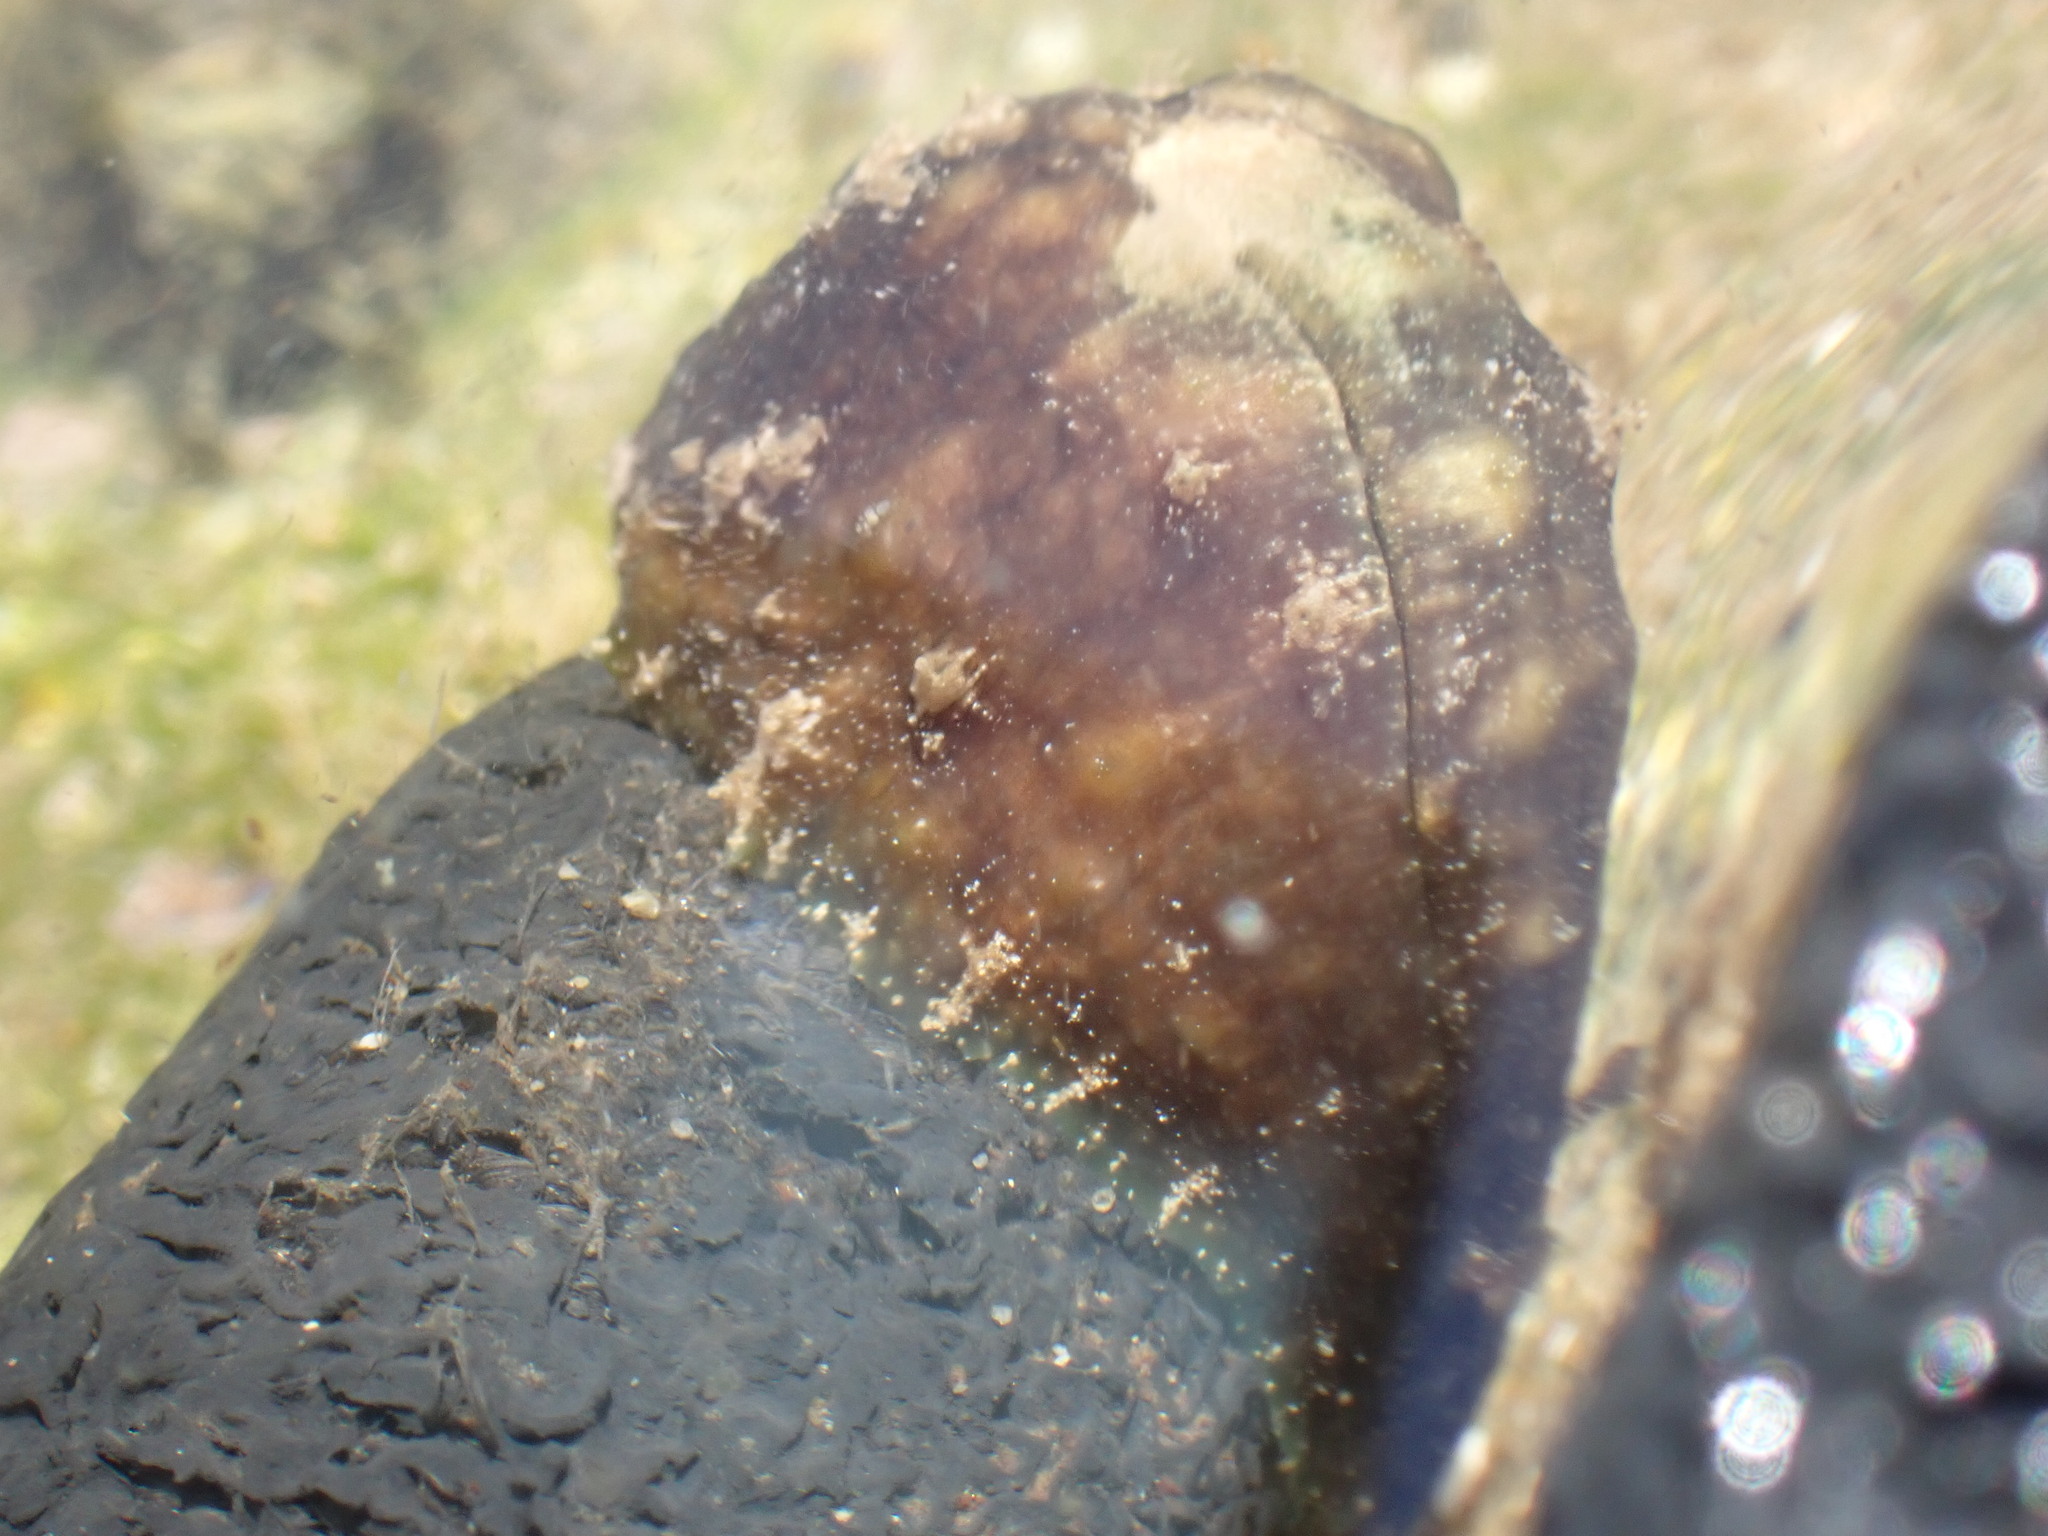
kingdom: Animalia
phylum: Mollusca
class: Gastropoda
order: Aplysiida
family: Aplysiidae
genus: Dolabrifera
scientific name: Dolabrifera dolabrifera
